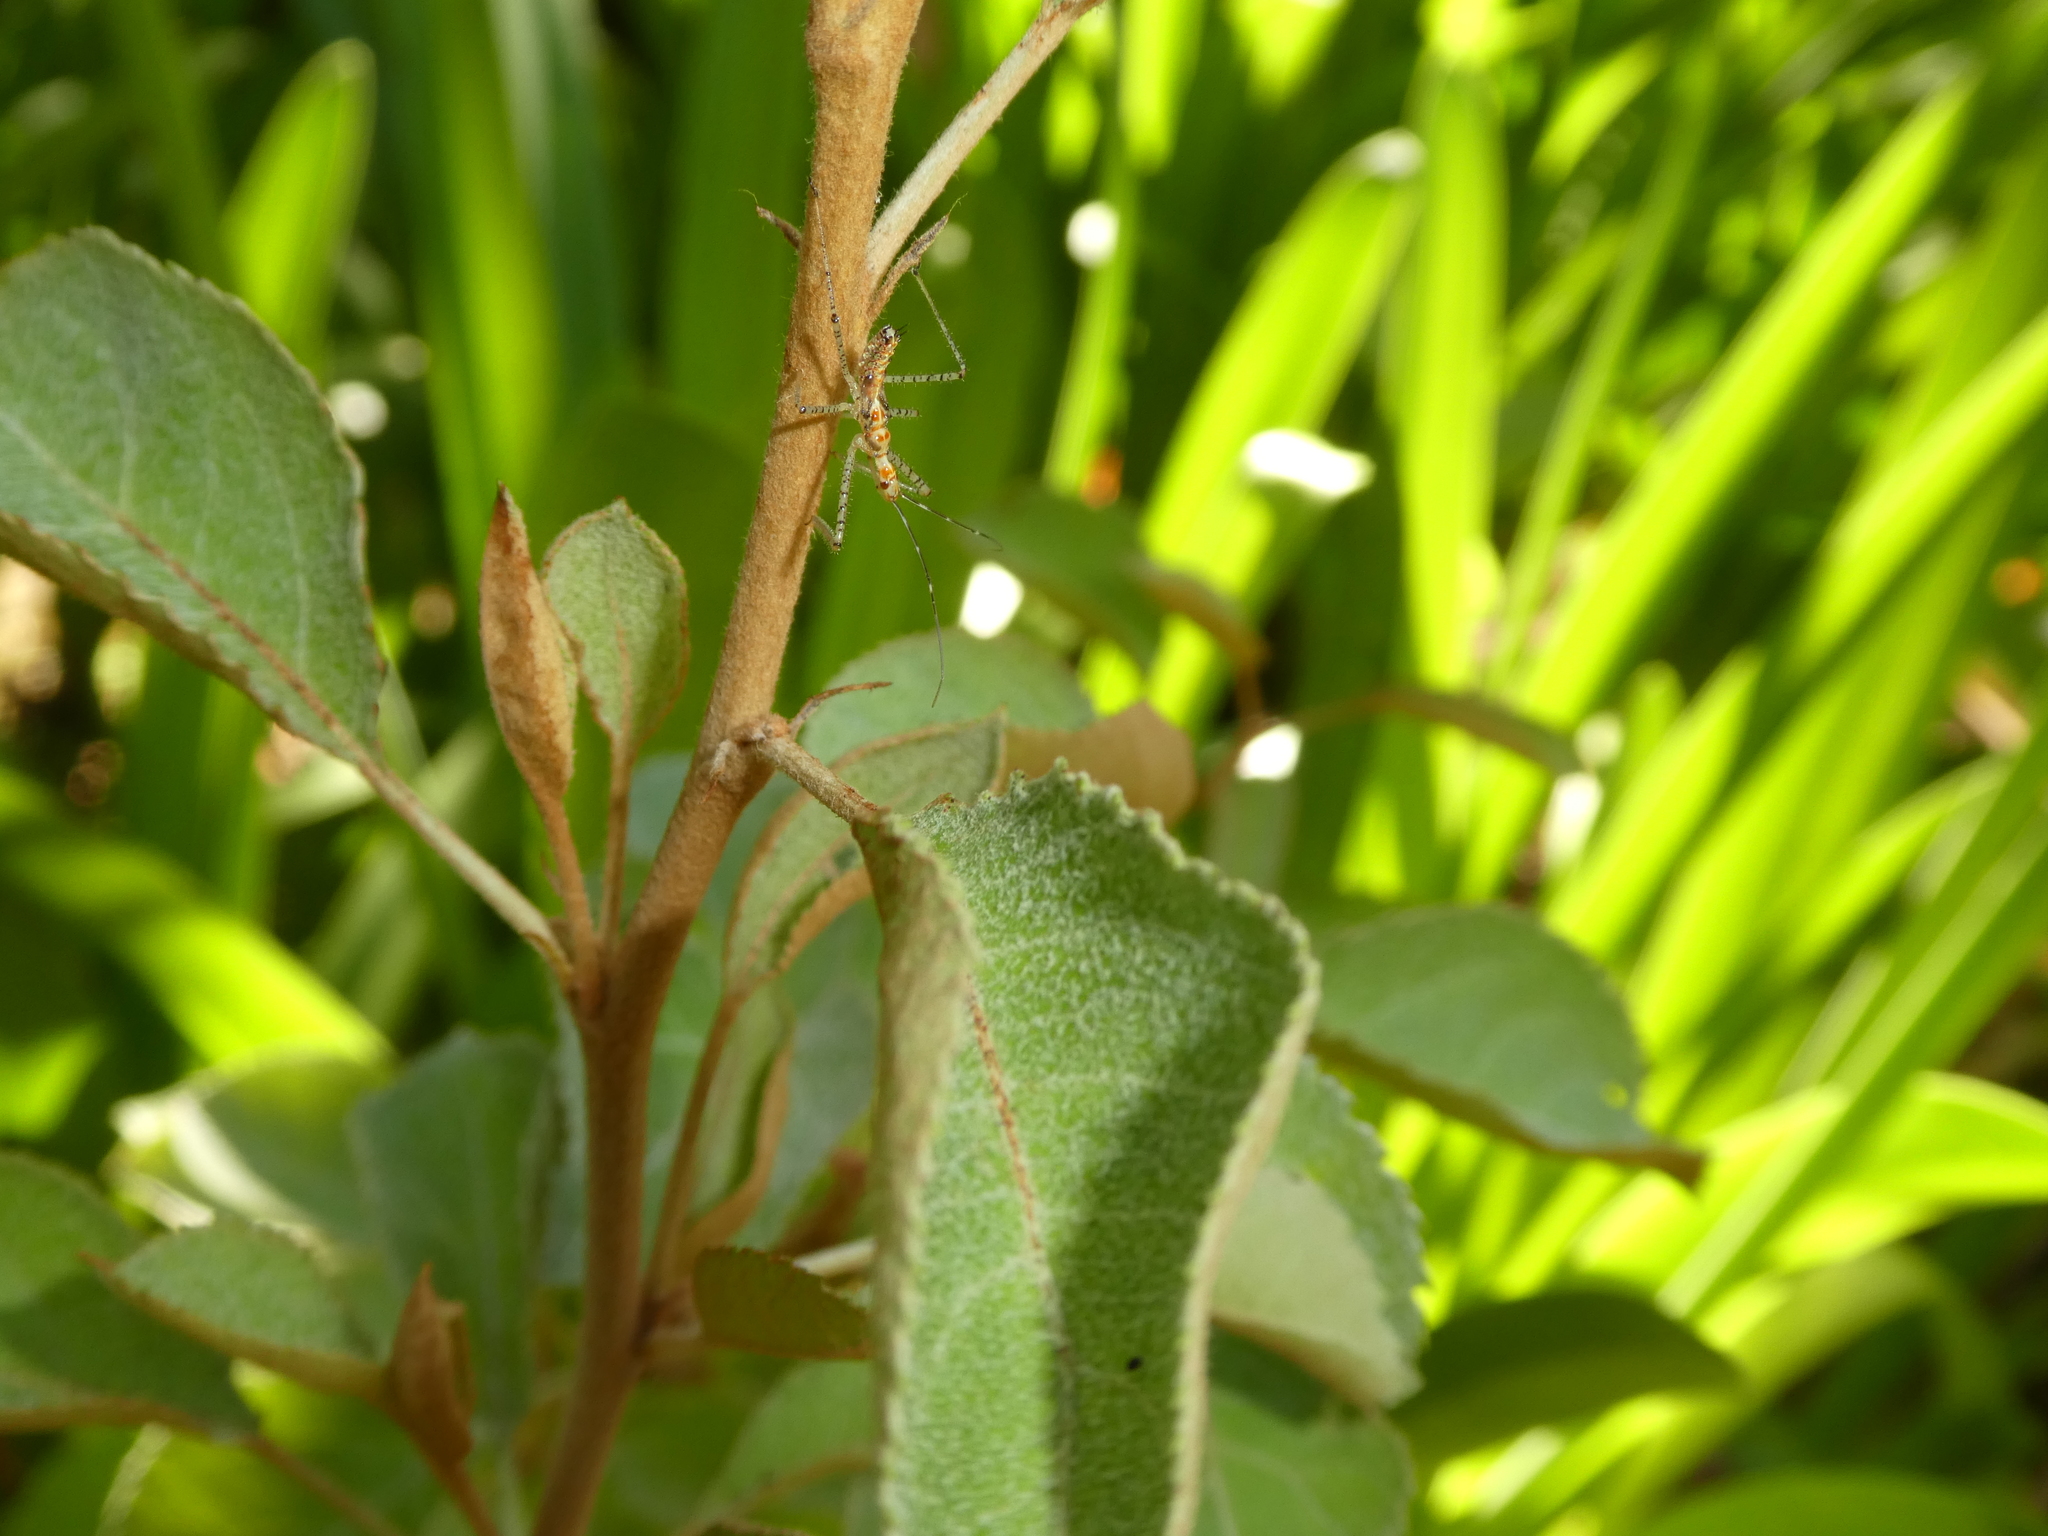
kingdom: Animalia
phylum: Arthropoda
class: Insecta
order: Hemiptera
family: Reduviidae
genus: Zelus
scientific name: Zelus renardii
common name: Assassin bug
